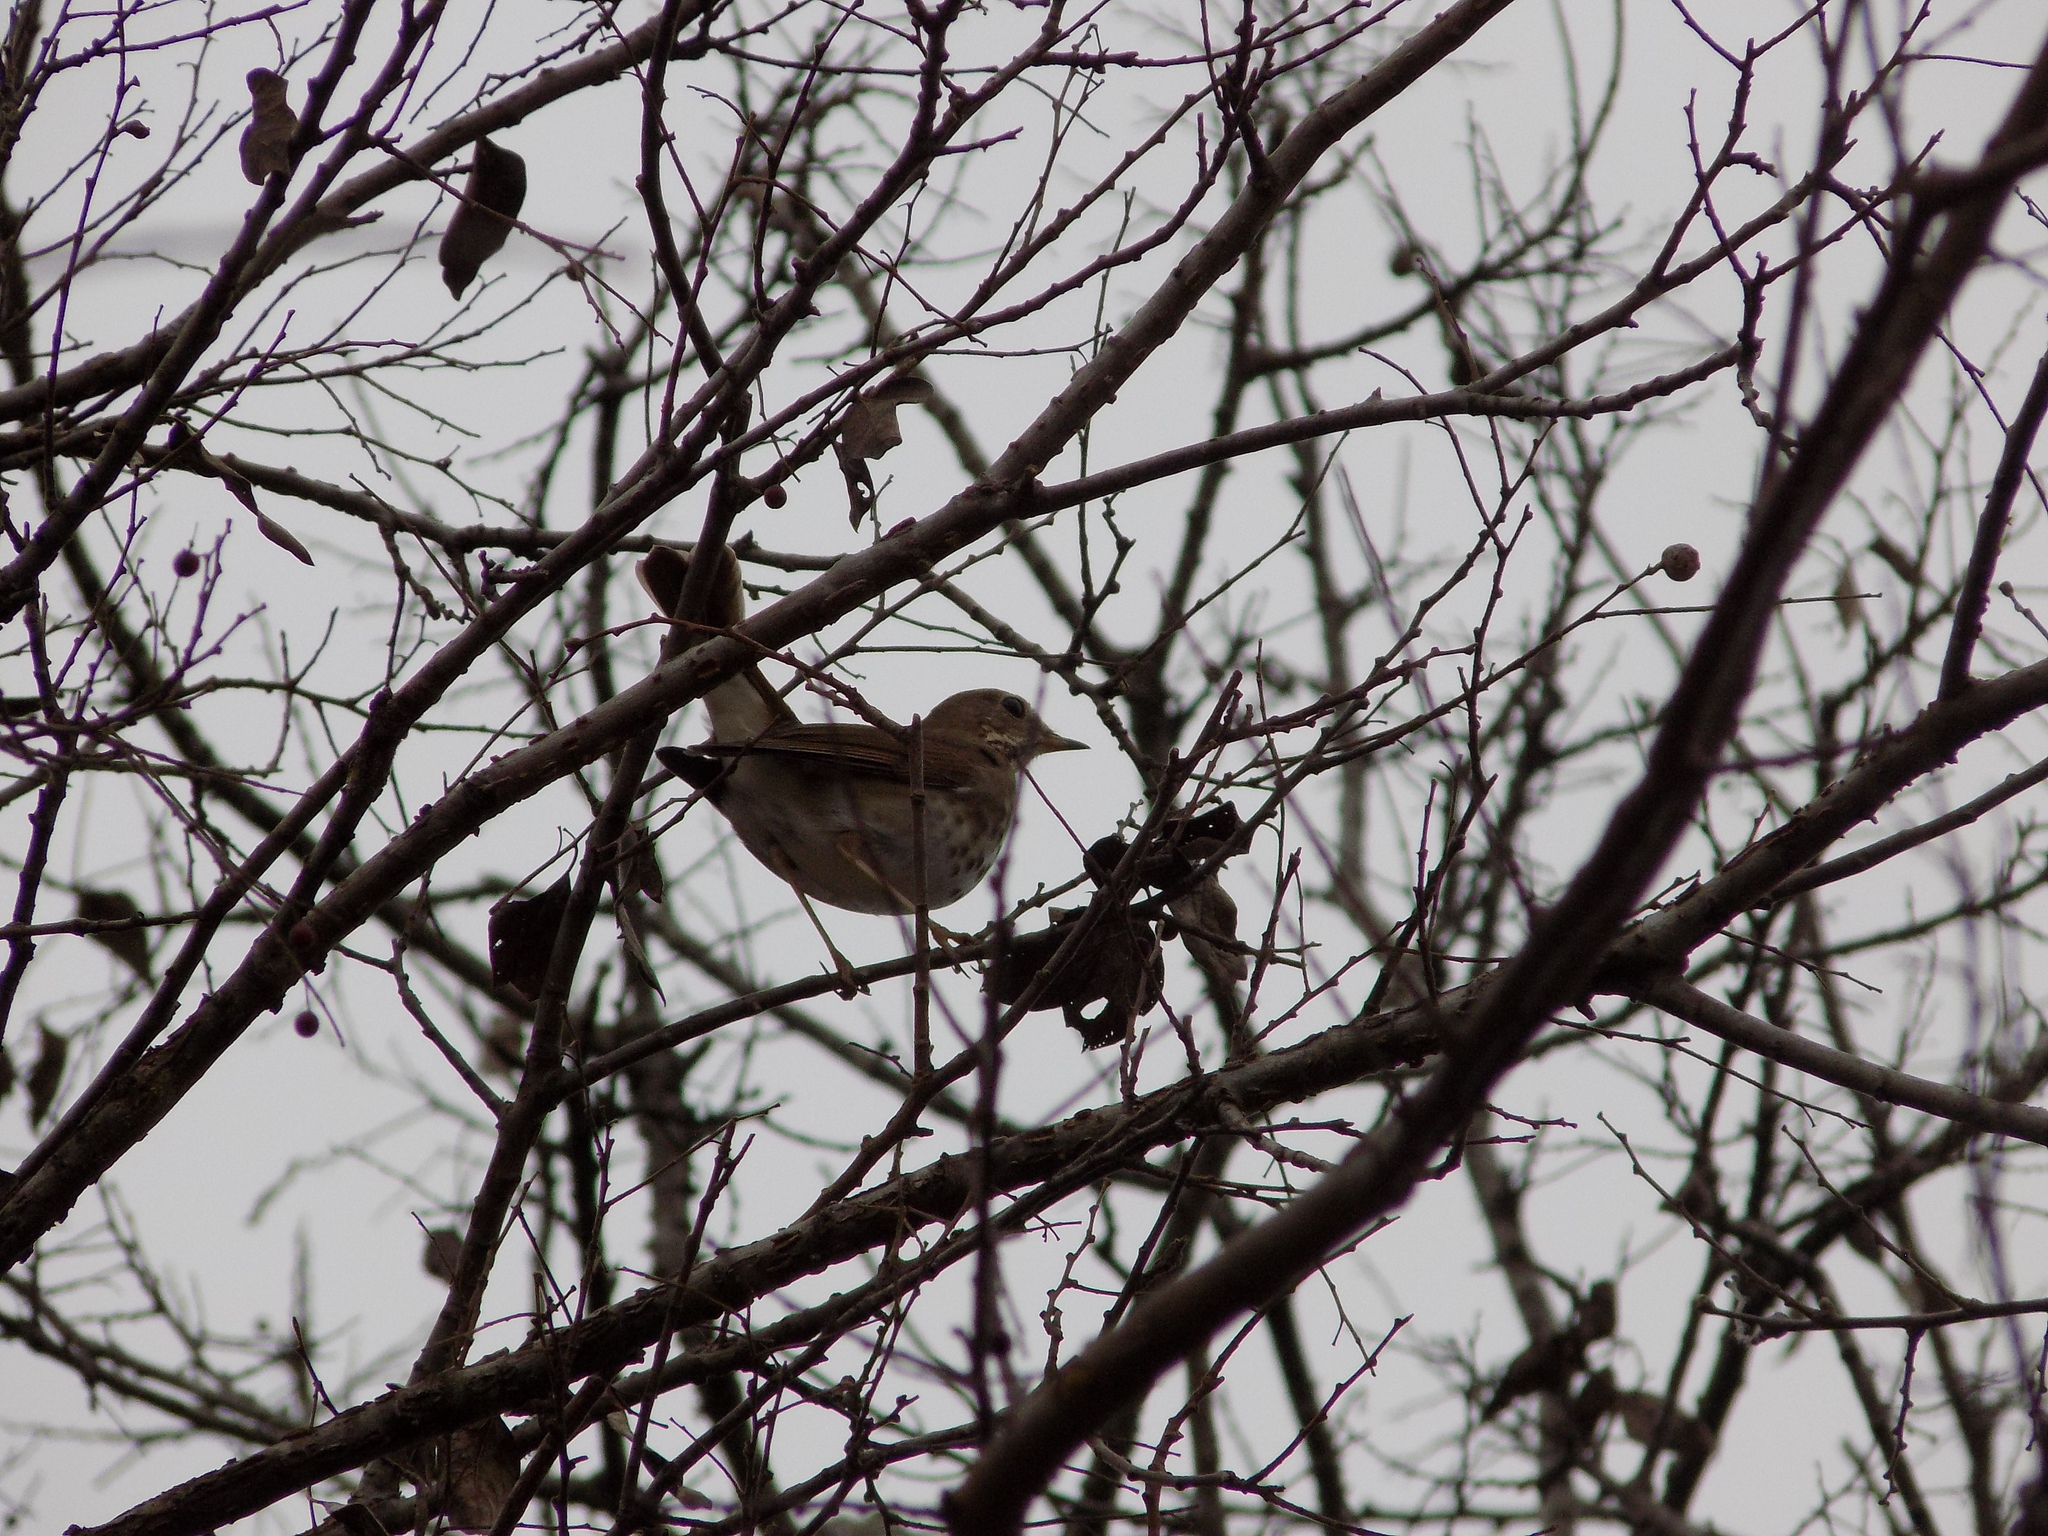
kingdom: Animalia
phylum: Chordata
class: Aves
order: Passeriformes
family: Turdidae
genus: Catharus
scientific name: Catharus guttatus
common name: Hermit thrush
